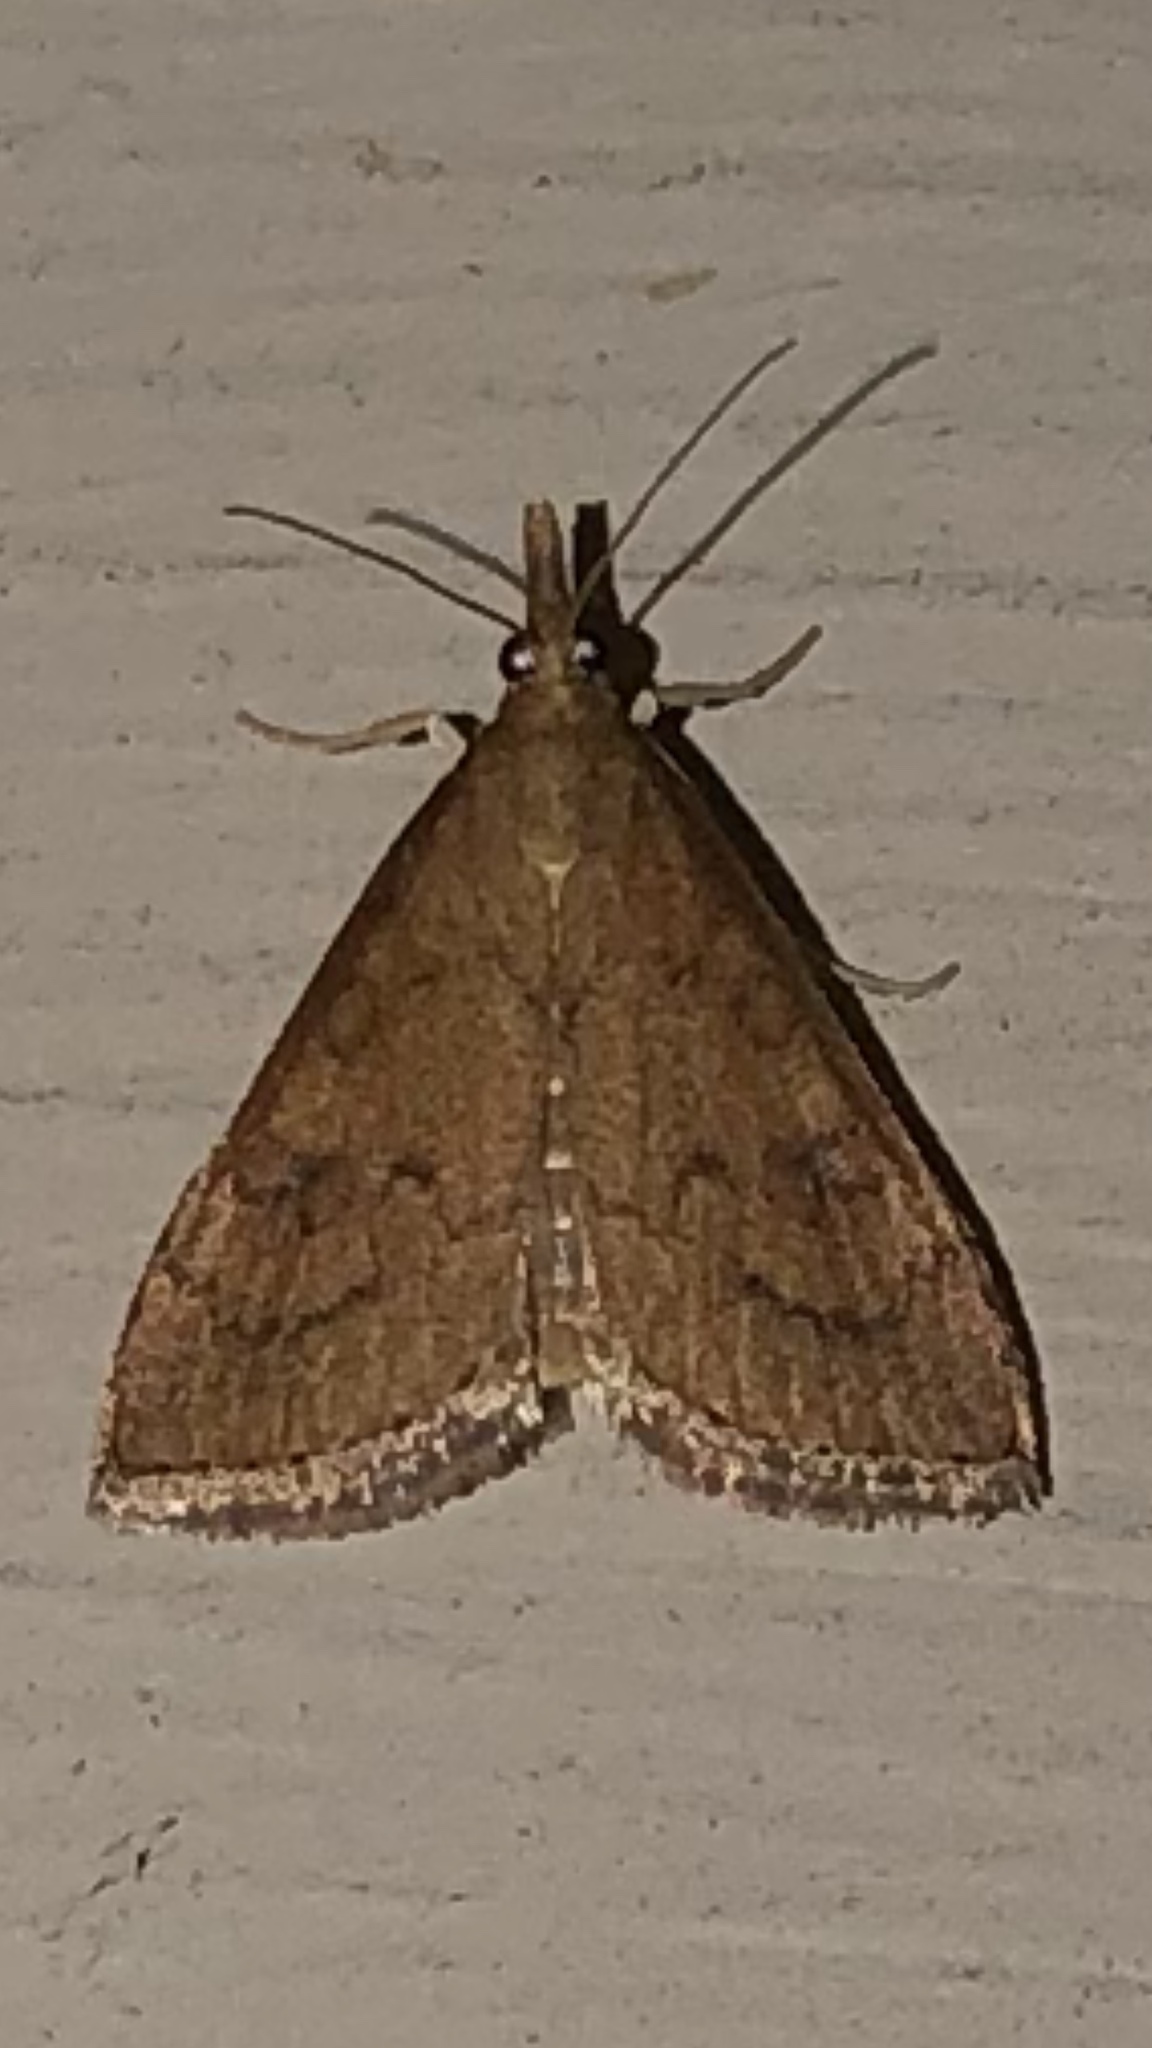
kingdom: Animalia
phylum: Arthropoda
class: Insecta
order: Lepidoptera
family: Crambidae
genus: Udea
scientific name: Udea rubigalis
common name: Celery leaftier moth
